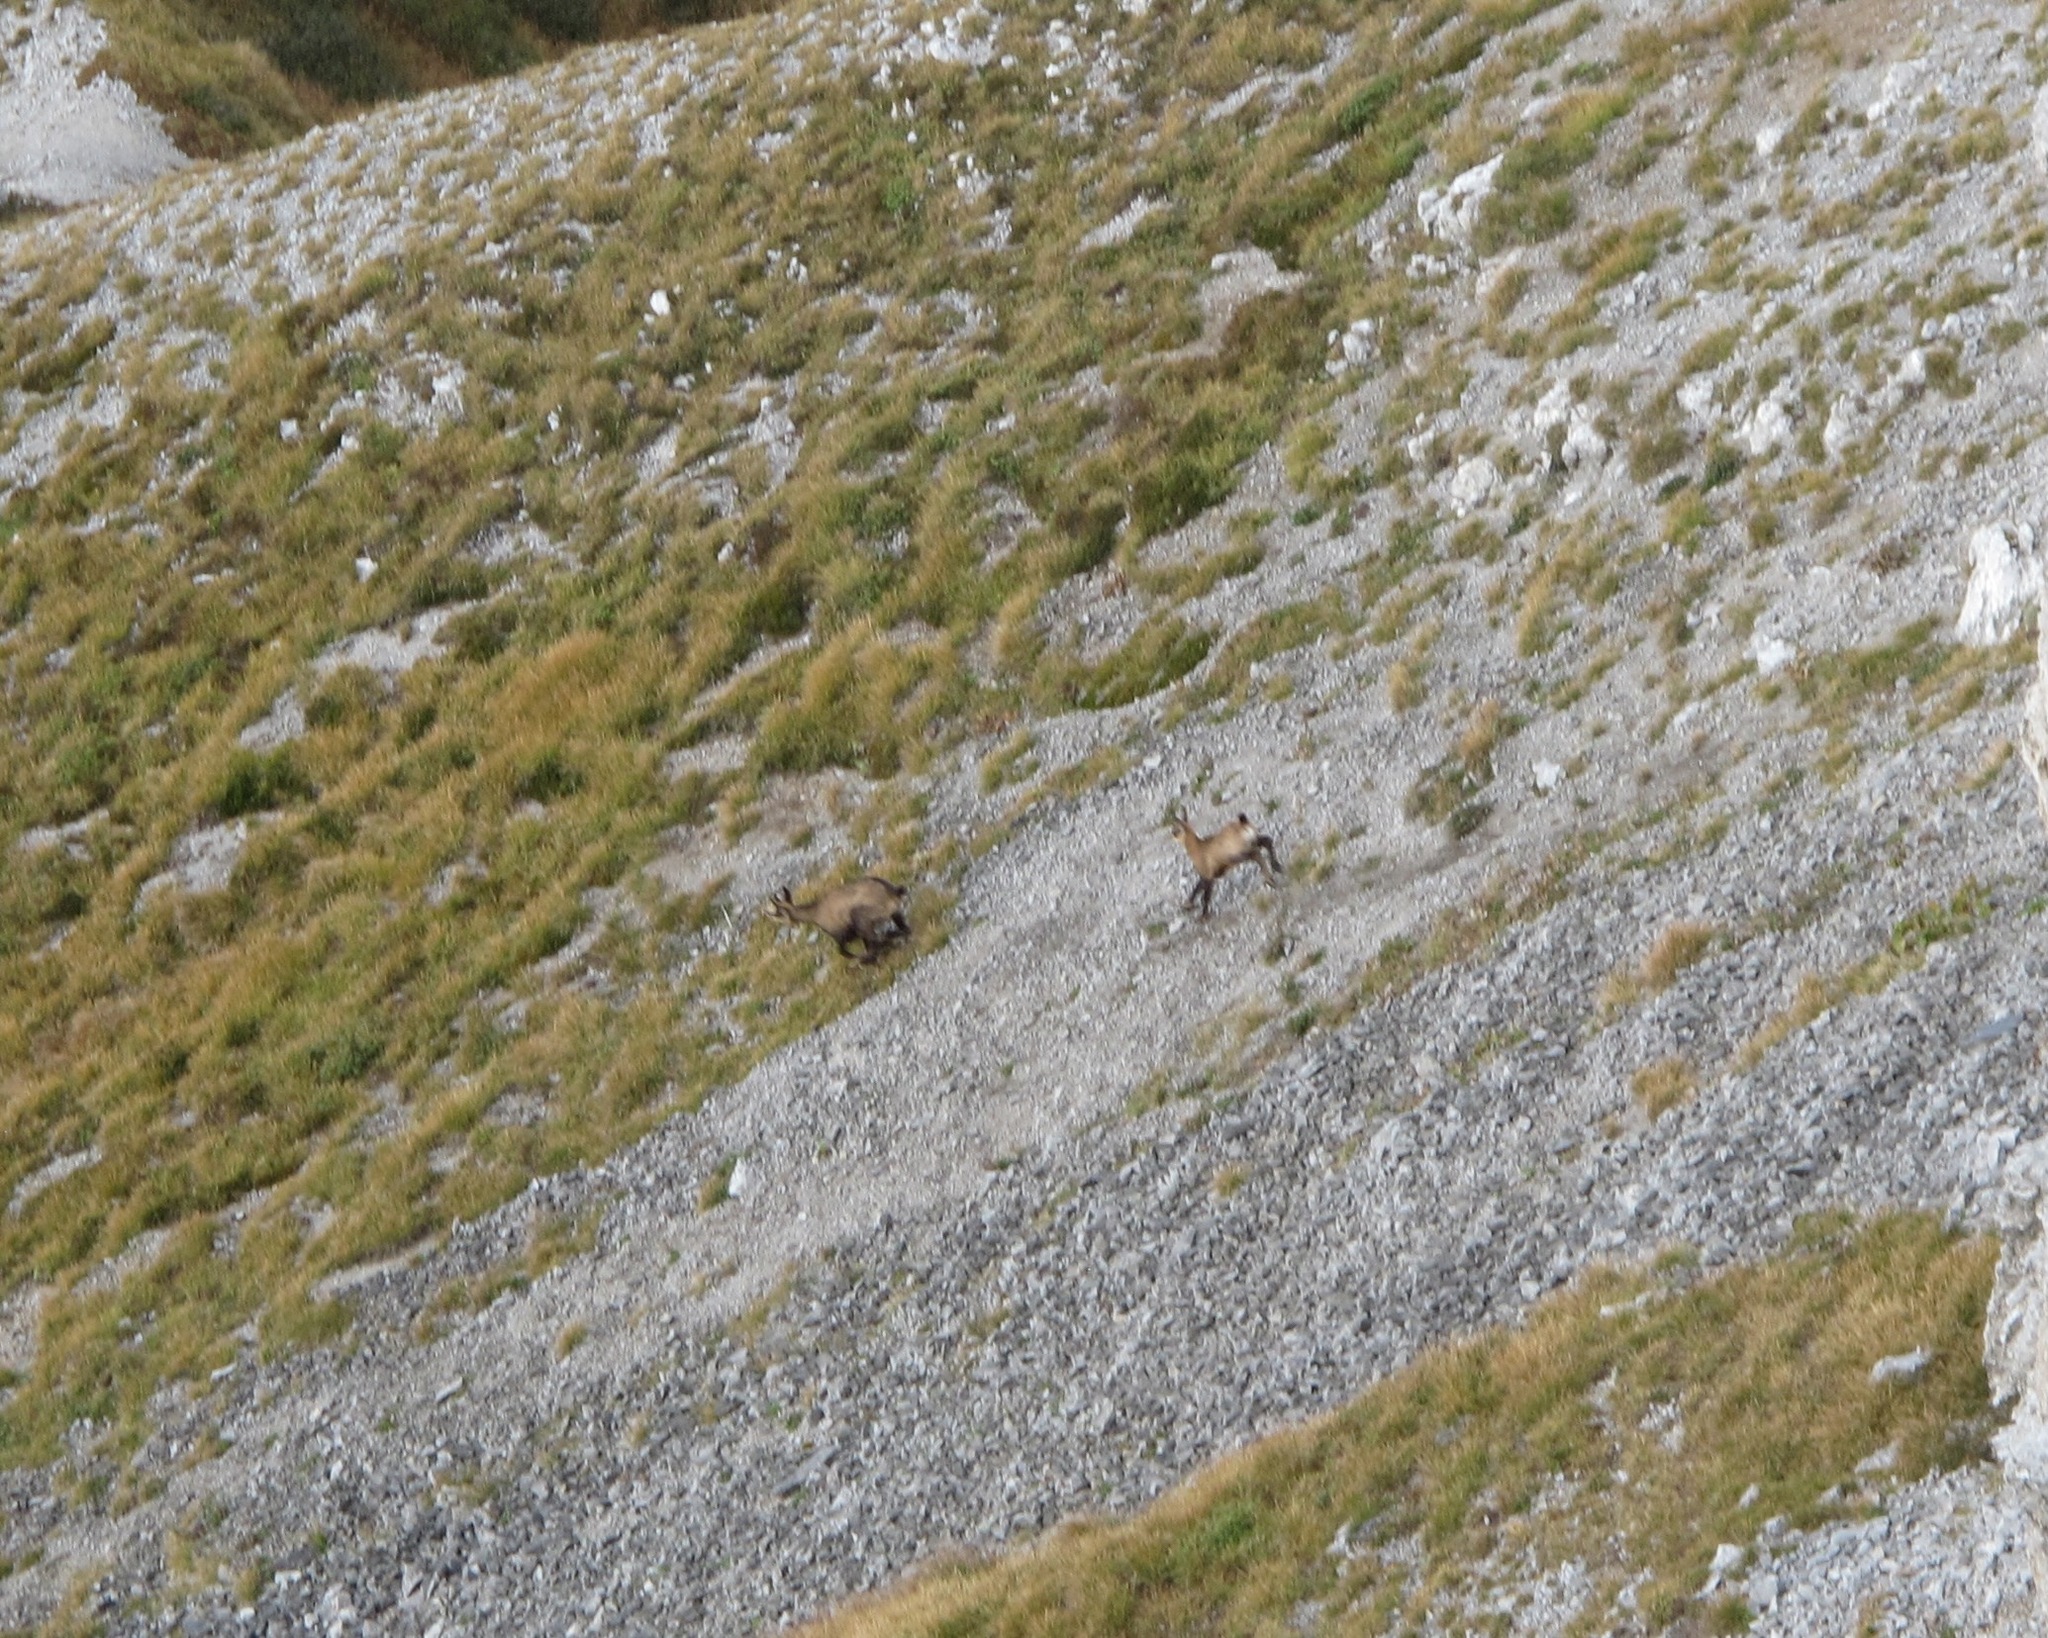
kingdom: Animalia
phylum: Chordata
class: Mammalia
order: Artiodactyla
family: Bovidae
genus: Rupicapra
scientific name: Rupicapra rupicapra
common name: Chamois
